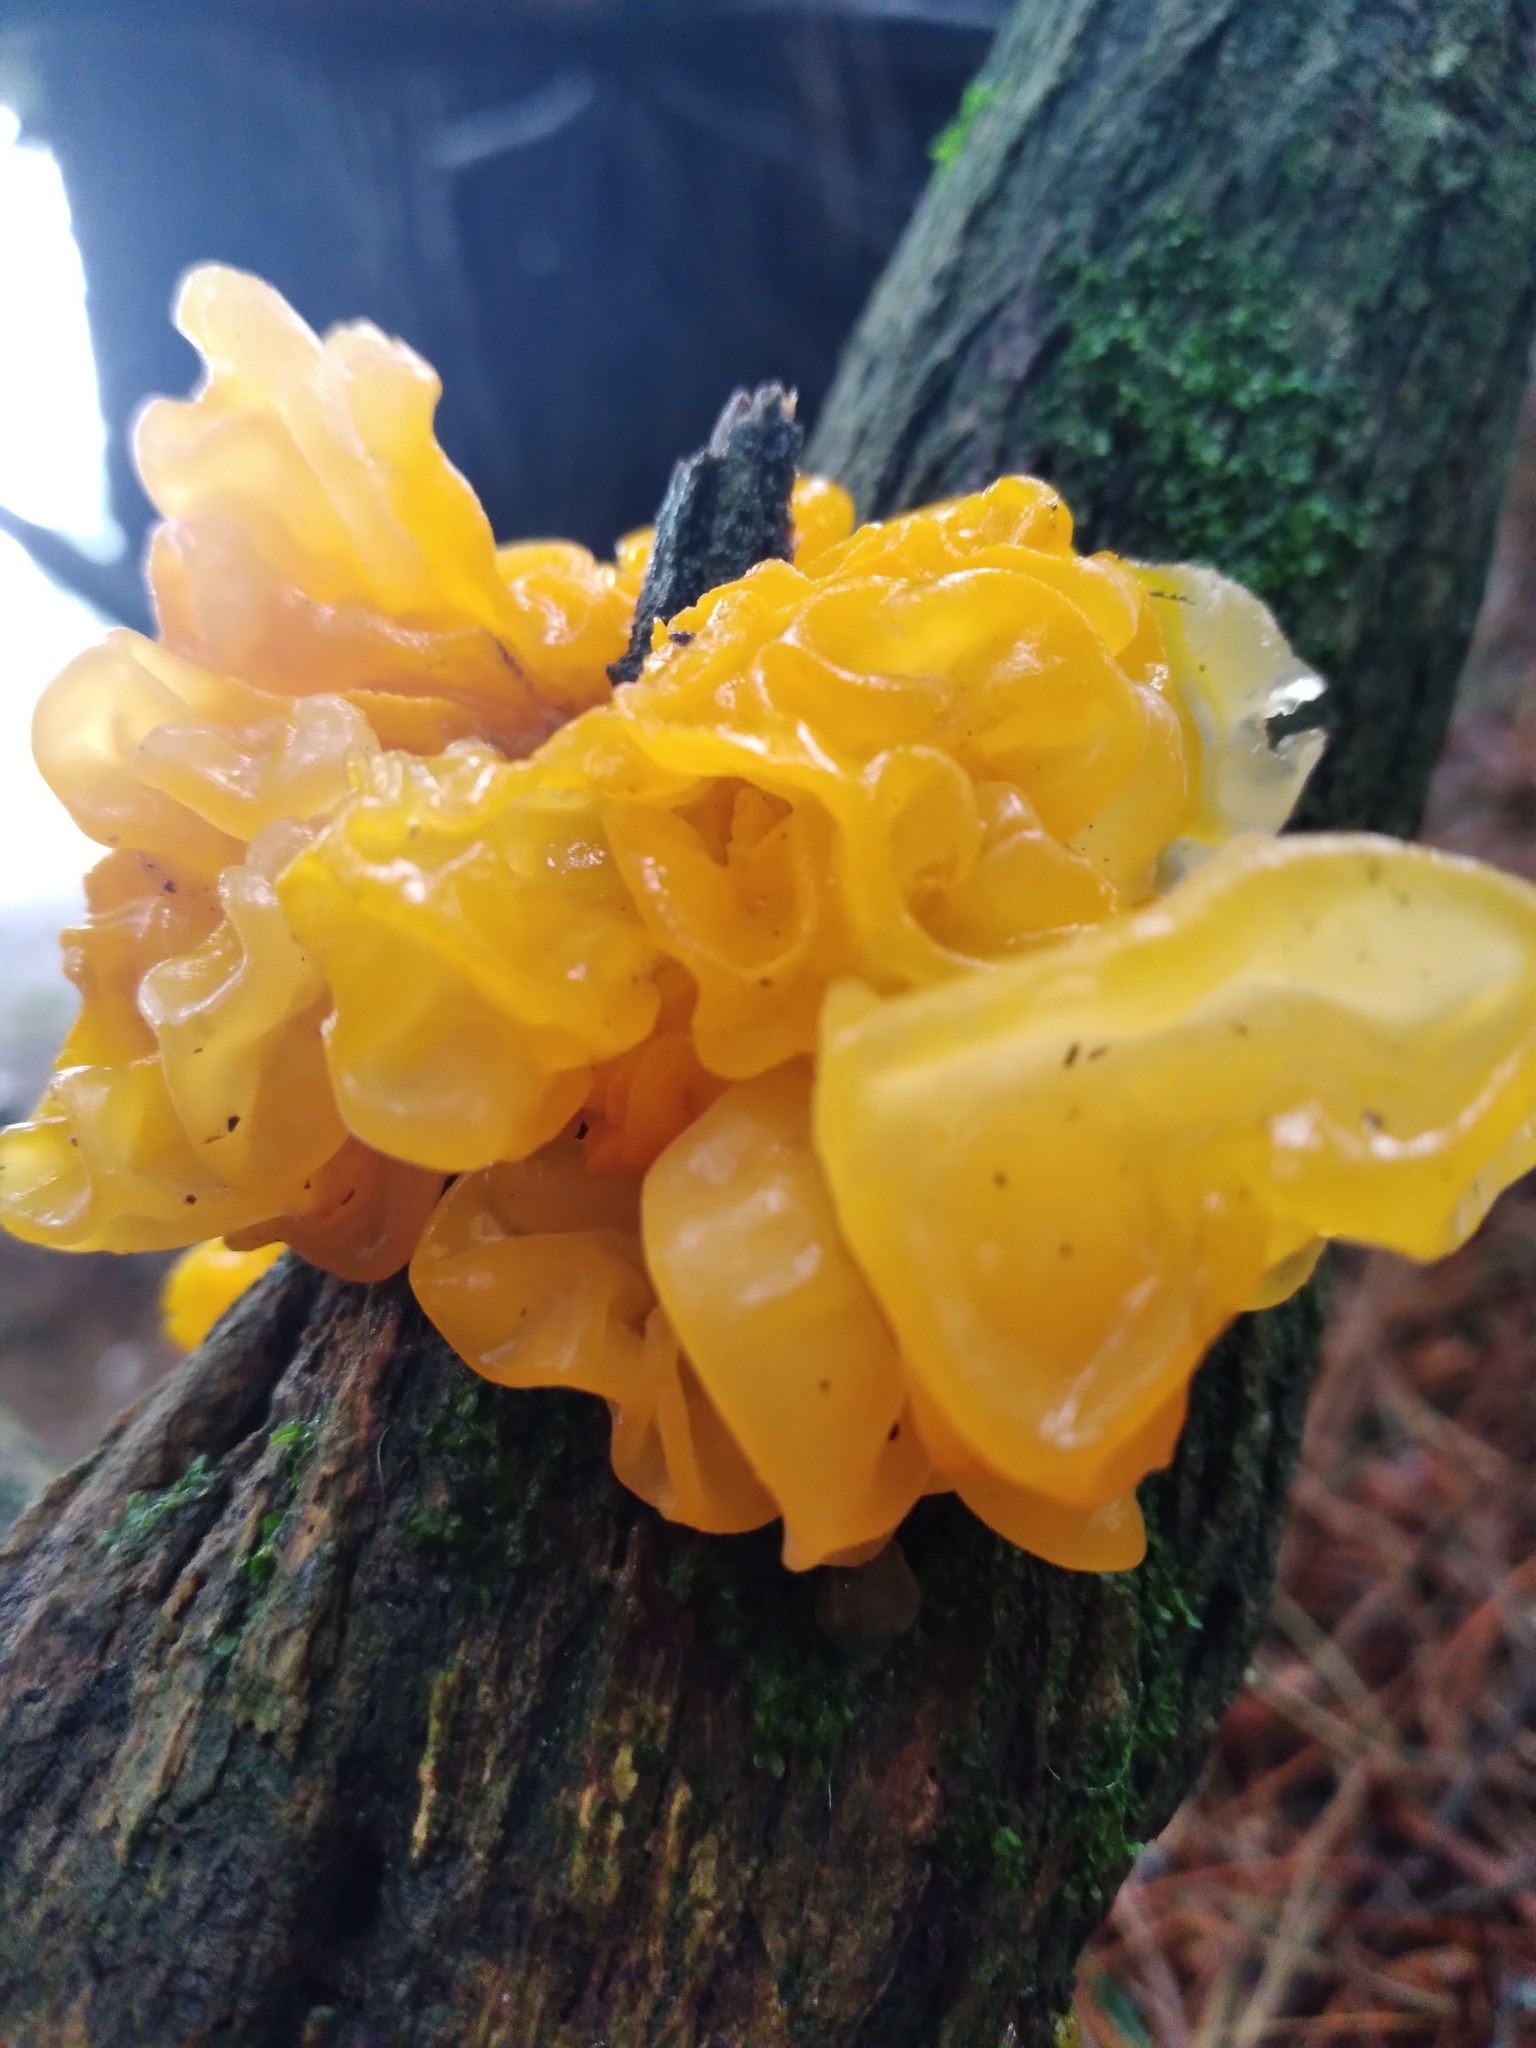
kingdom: Fungi
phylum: Basidiomycota
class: Tremellomycetes
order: Tremellales
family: Tremellaceae
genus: Tremella
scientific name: Tremella mesenterica
